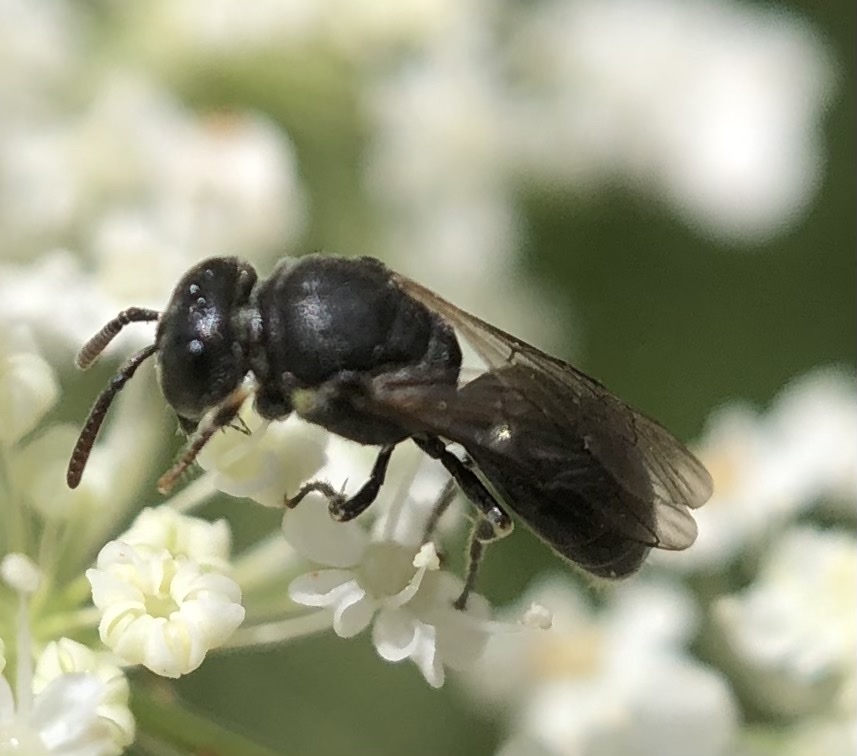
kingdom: Animalia
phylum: Arthropoda
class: Insecta
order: Hymenoptera
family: Colletidae
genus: Hylaeus
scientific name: Hylaeus mesillae
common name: Mesilla masked bee
